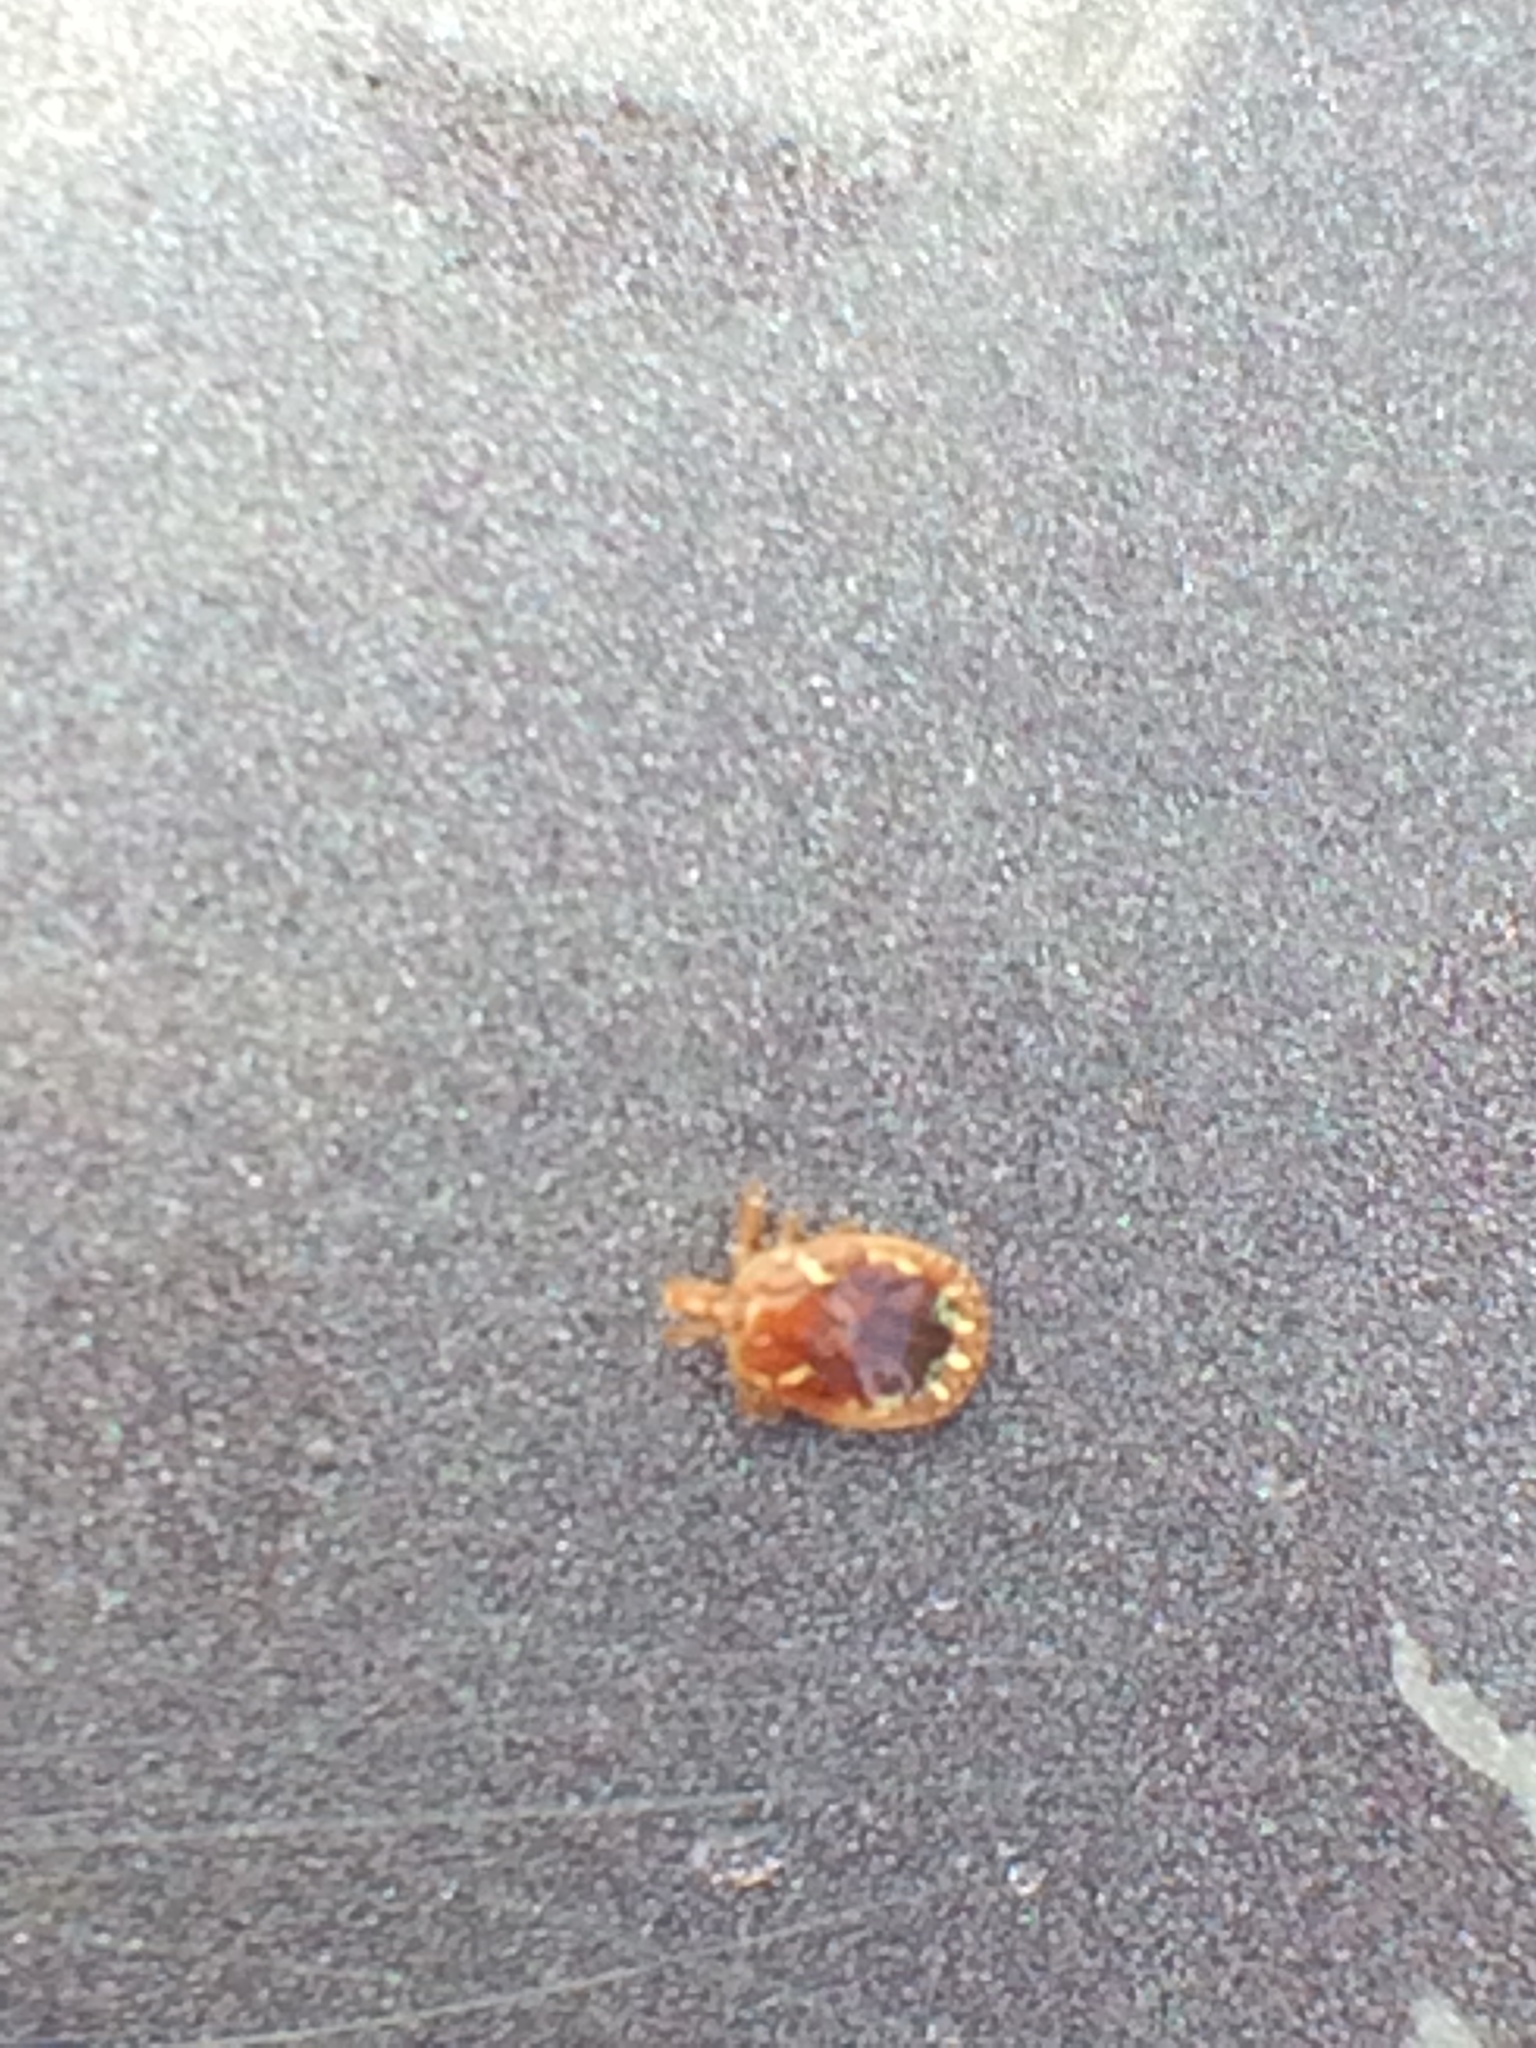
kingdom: Animalia
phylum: Arthropoda
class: Arachnida
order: Ixodida
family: Ixodidae
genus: Amblyomma
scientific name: Amblyomma americanum
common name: Lone star tick
